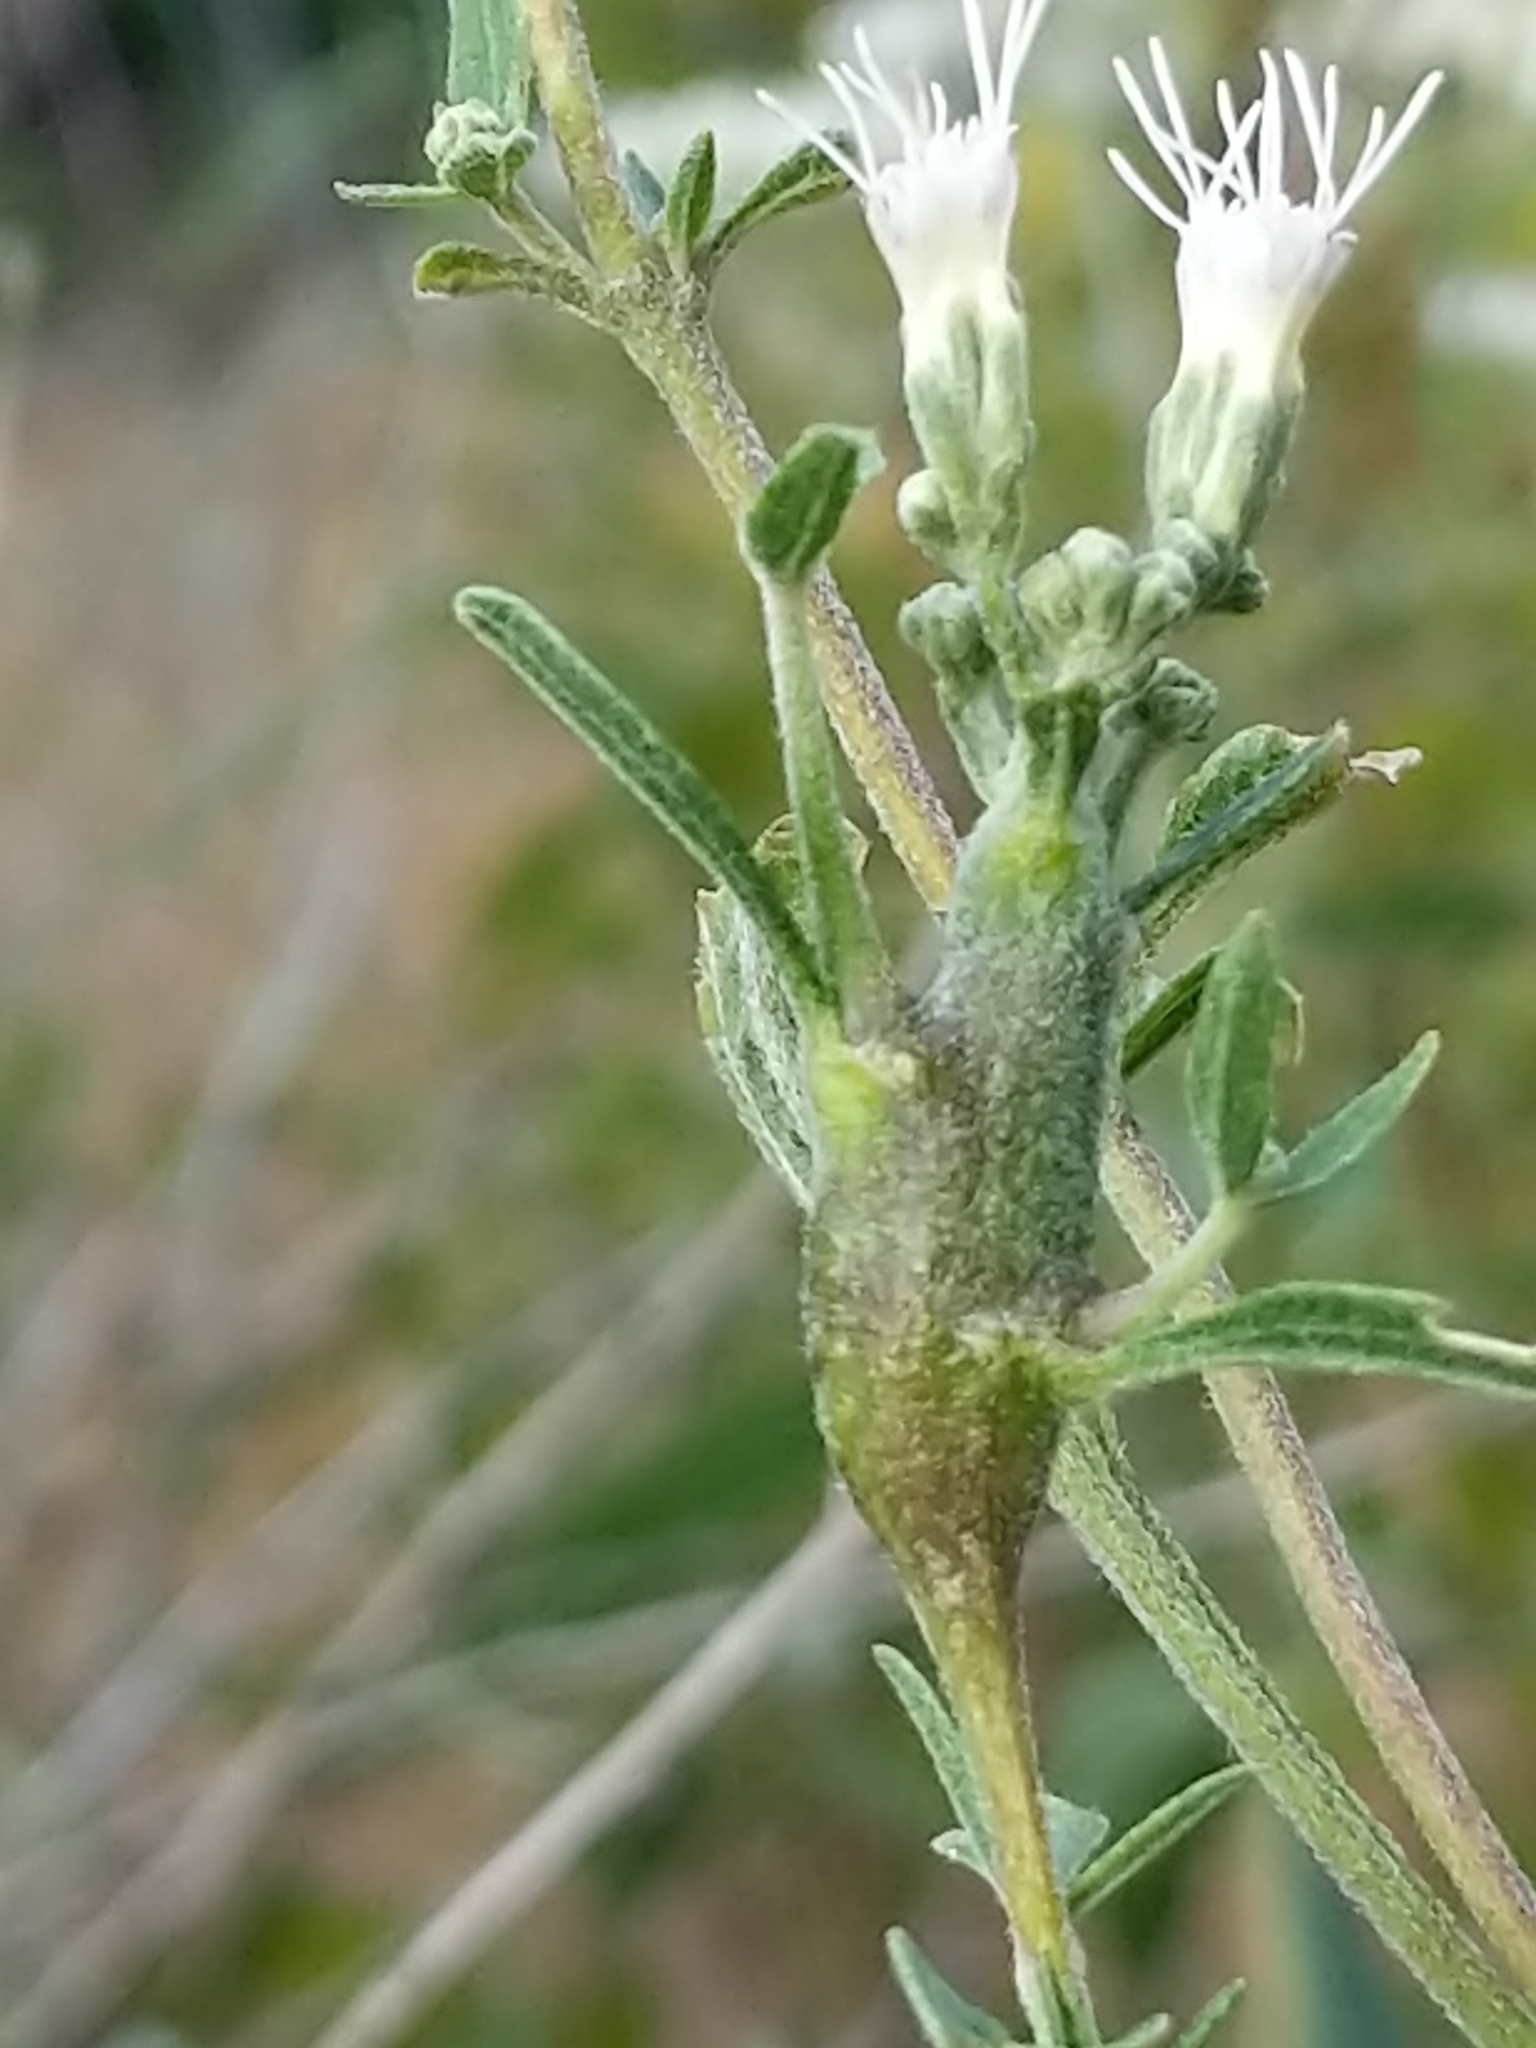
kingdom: Animalia
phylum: Arthropoda
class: Insecta
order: Diptera
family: Cecidomyiidae
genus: Neolasioptera
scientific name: Neolasioptera perfoliata
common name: Boneset stem midge
